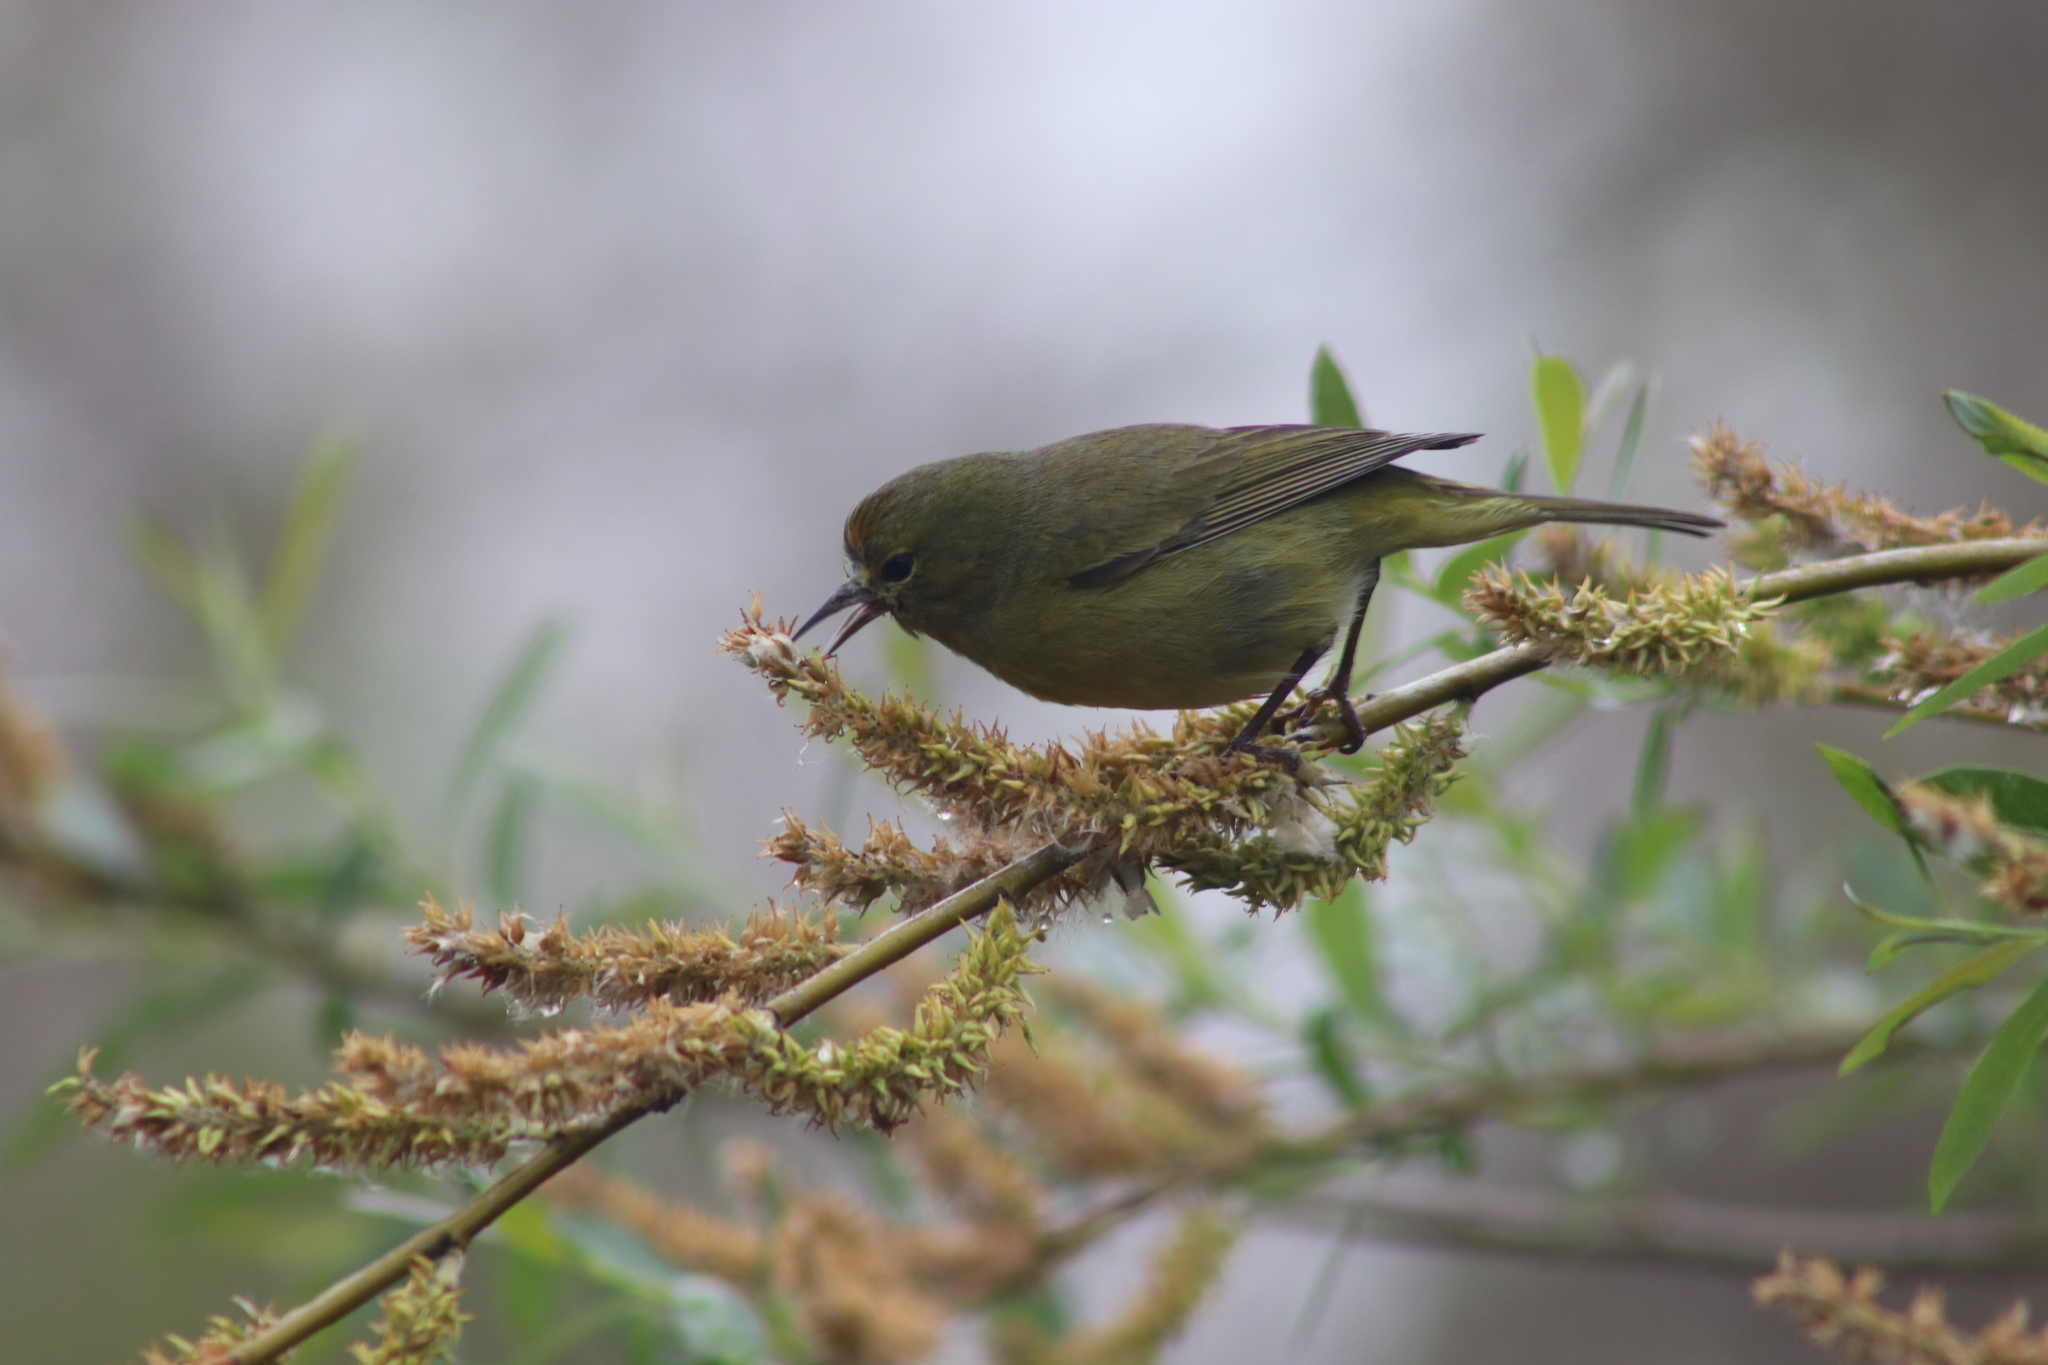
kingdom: Animalia
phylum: Chordata
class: Aves
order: Passeriformes
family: Parulidae
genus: Leiothlypis
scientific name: Leiothlypis celata
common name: Orange-crowned warbler
